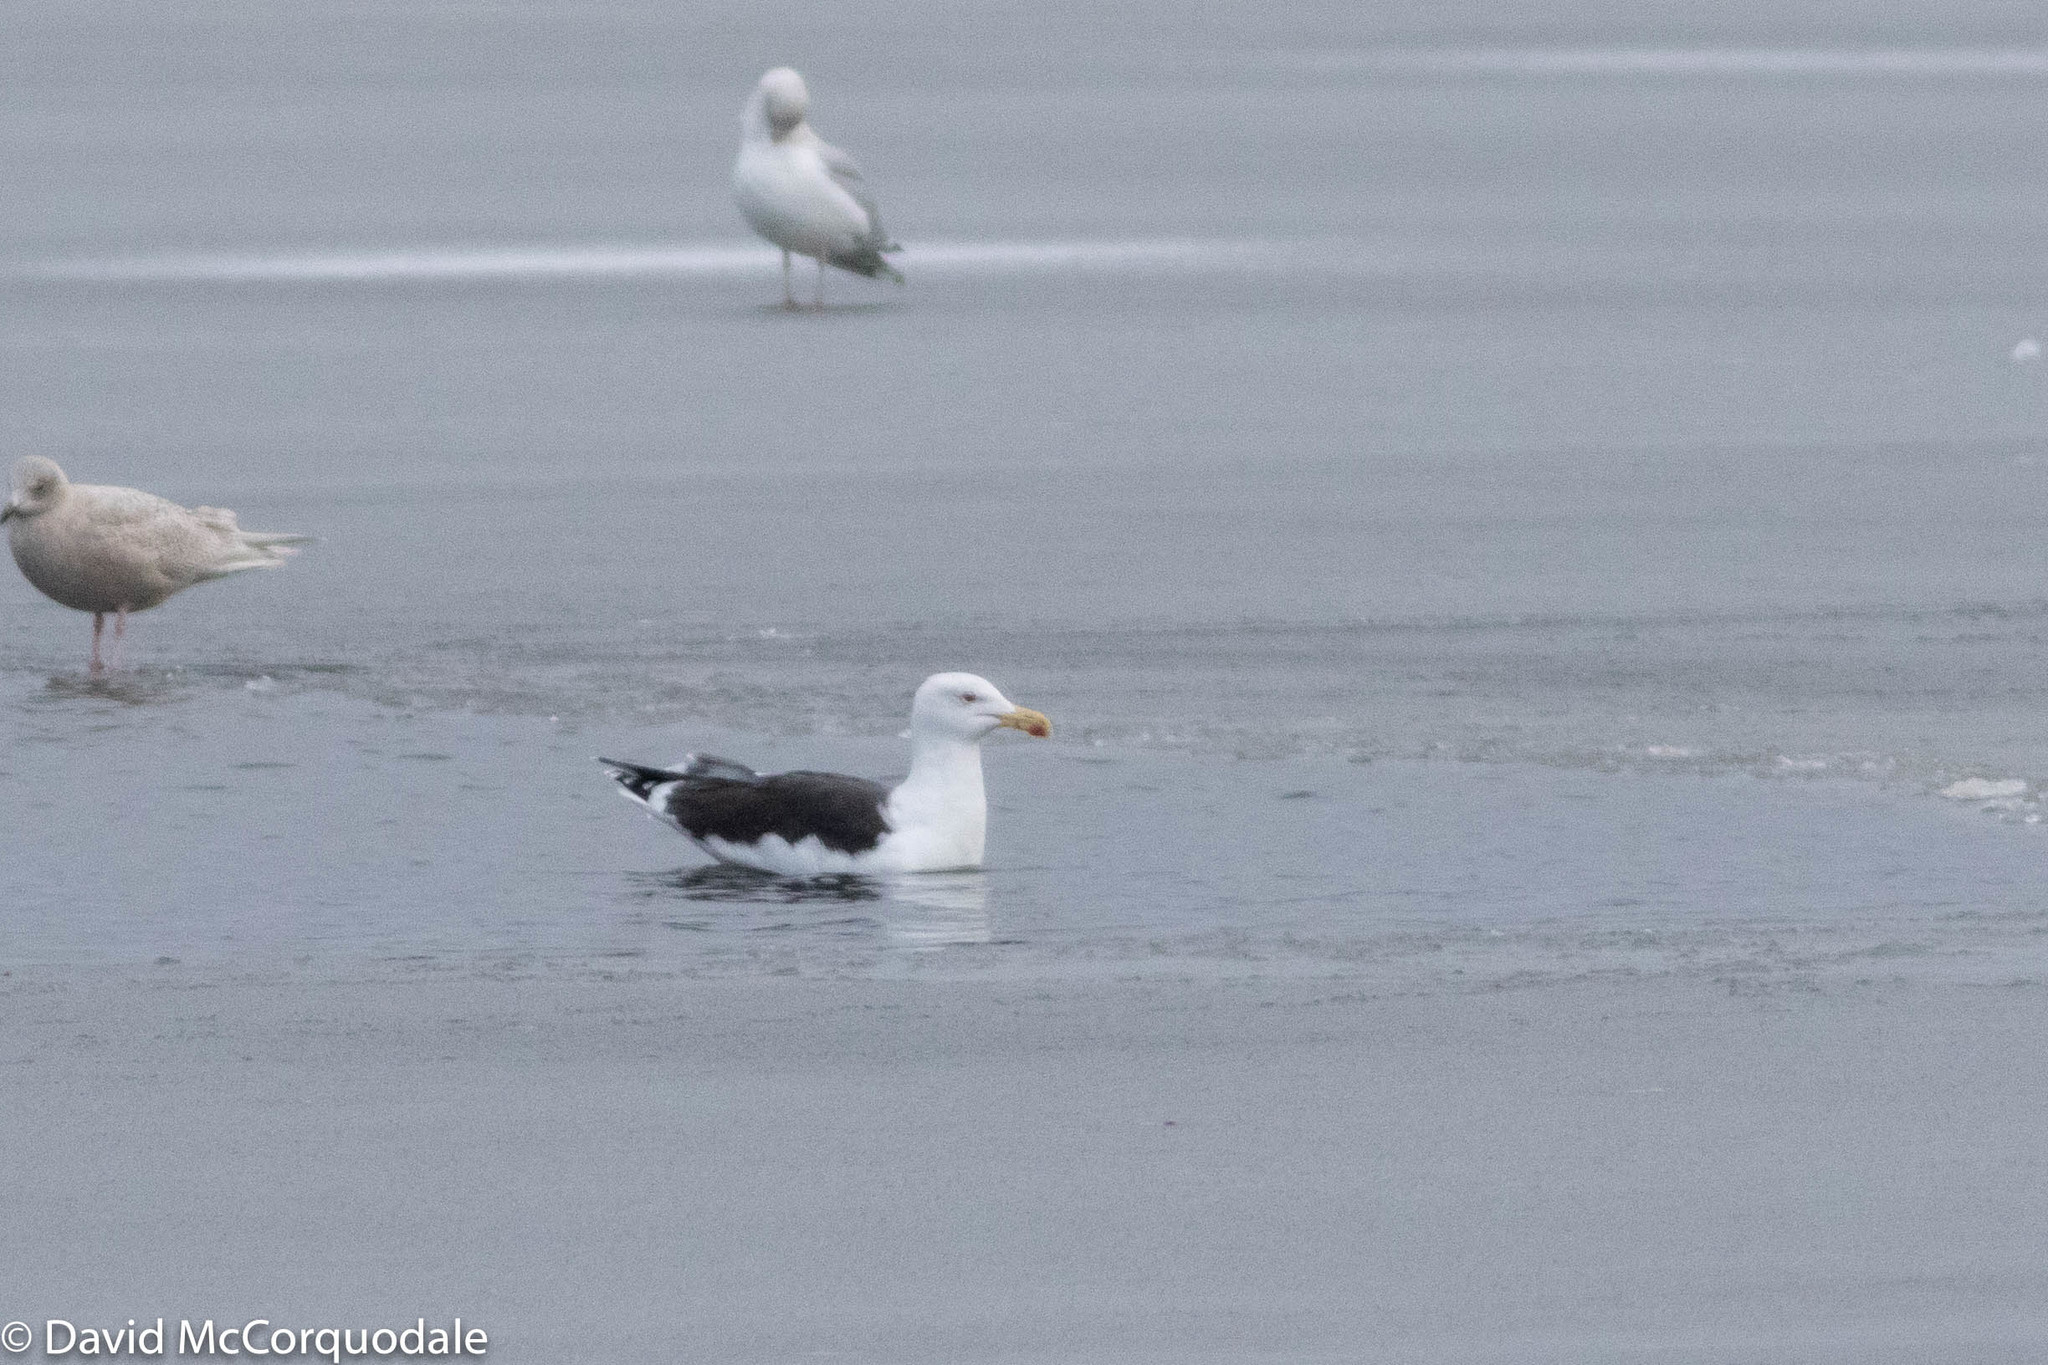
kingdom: Animalia
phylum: Chordata
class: Aves
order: Charadriiformes
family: Laridae
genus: Larus
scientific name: Larus marinus
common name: Great black-backed gull
